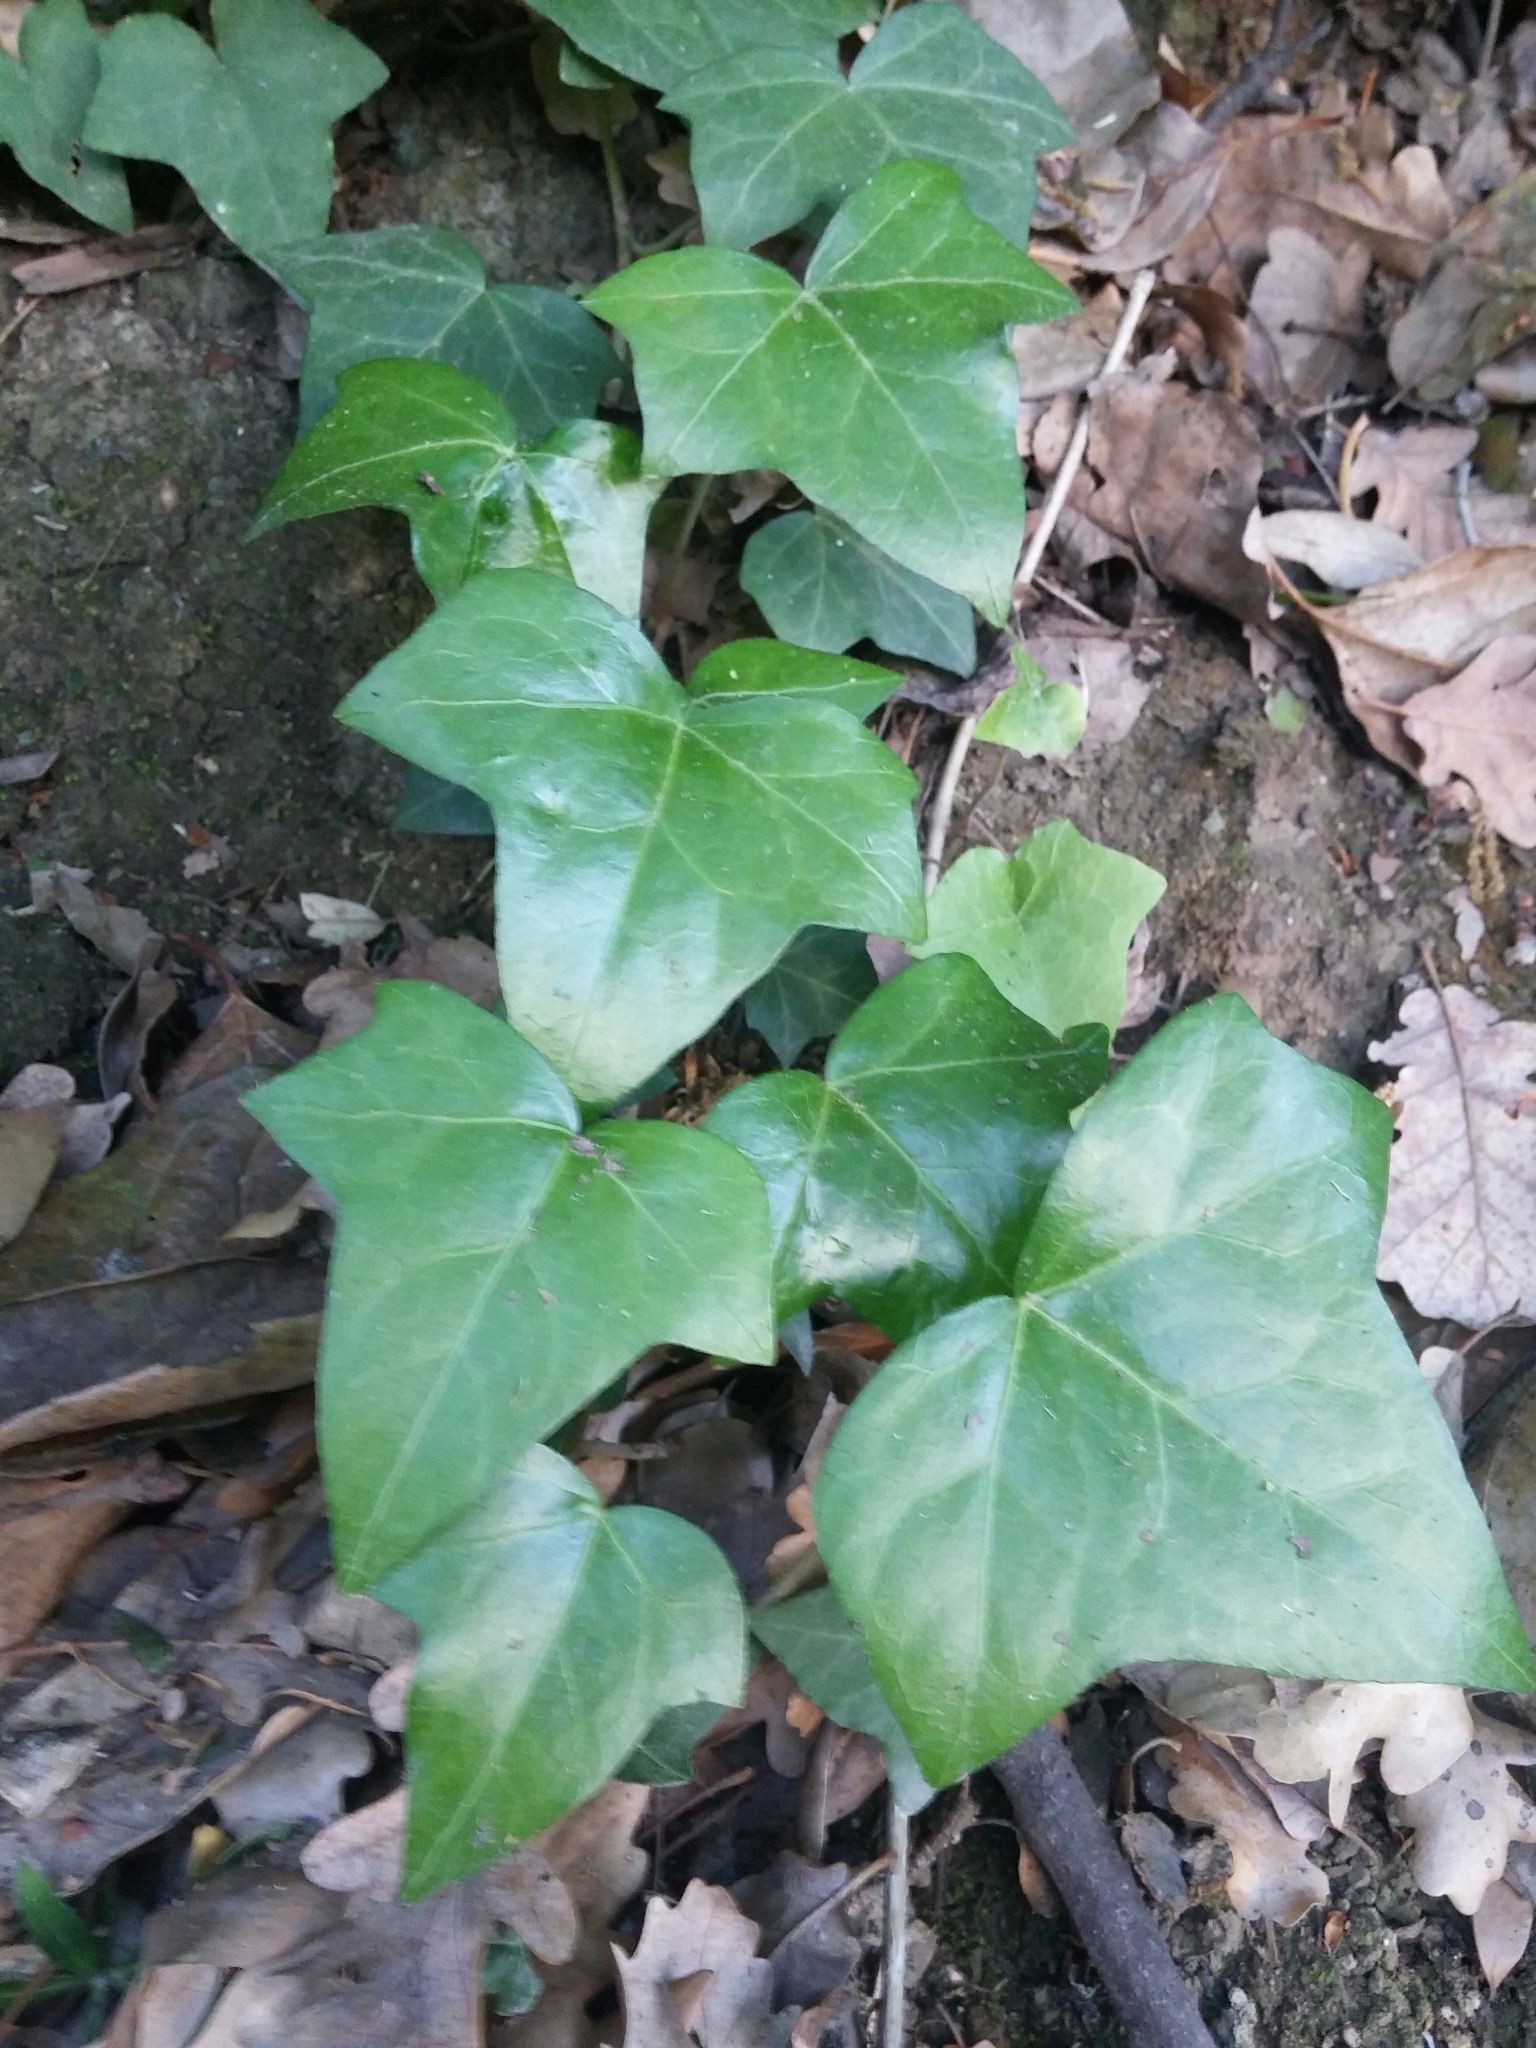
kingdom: Plantae
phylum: Tracheophyta
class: Magnoliopsida
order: Apiales
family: Araliaceae
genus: Hedera
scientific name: Hedera helix
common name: Ivy
